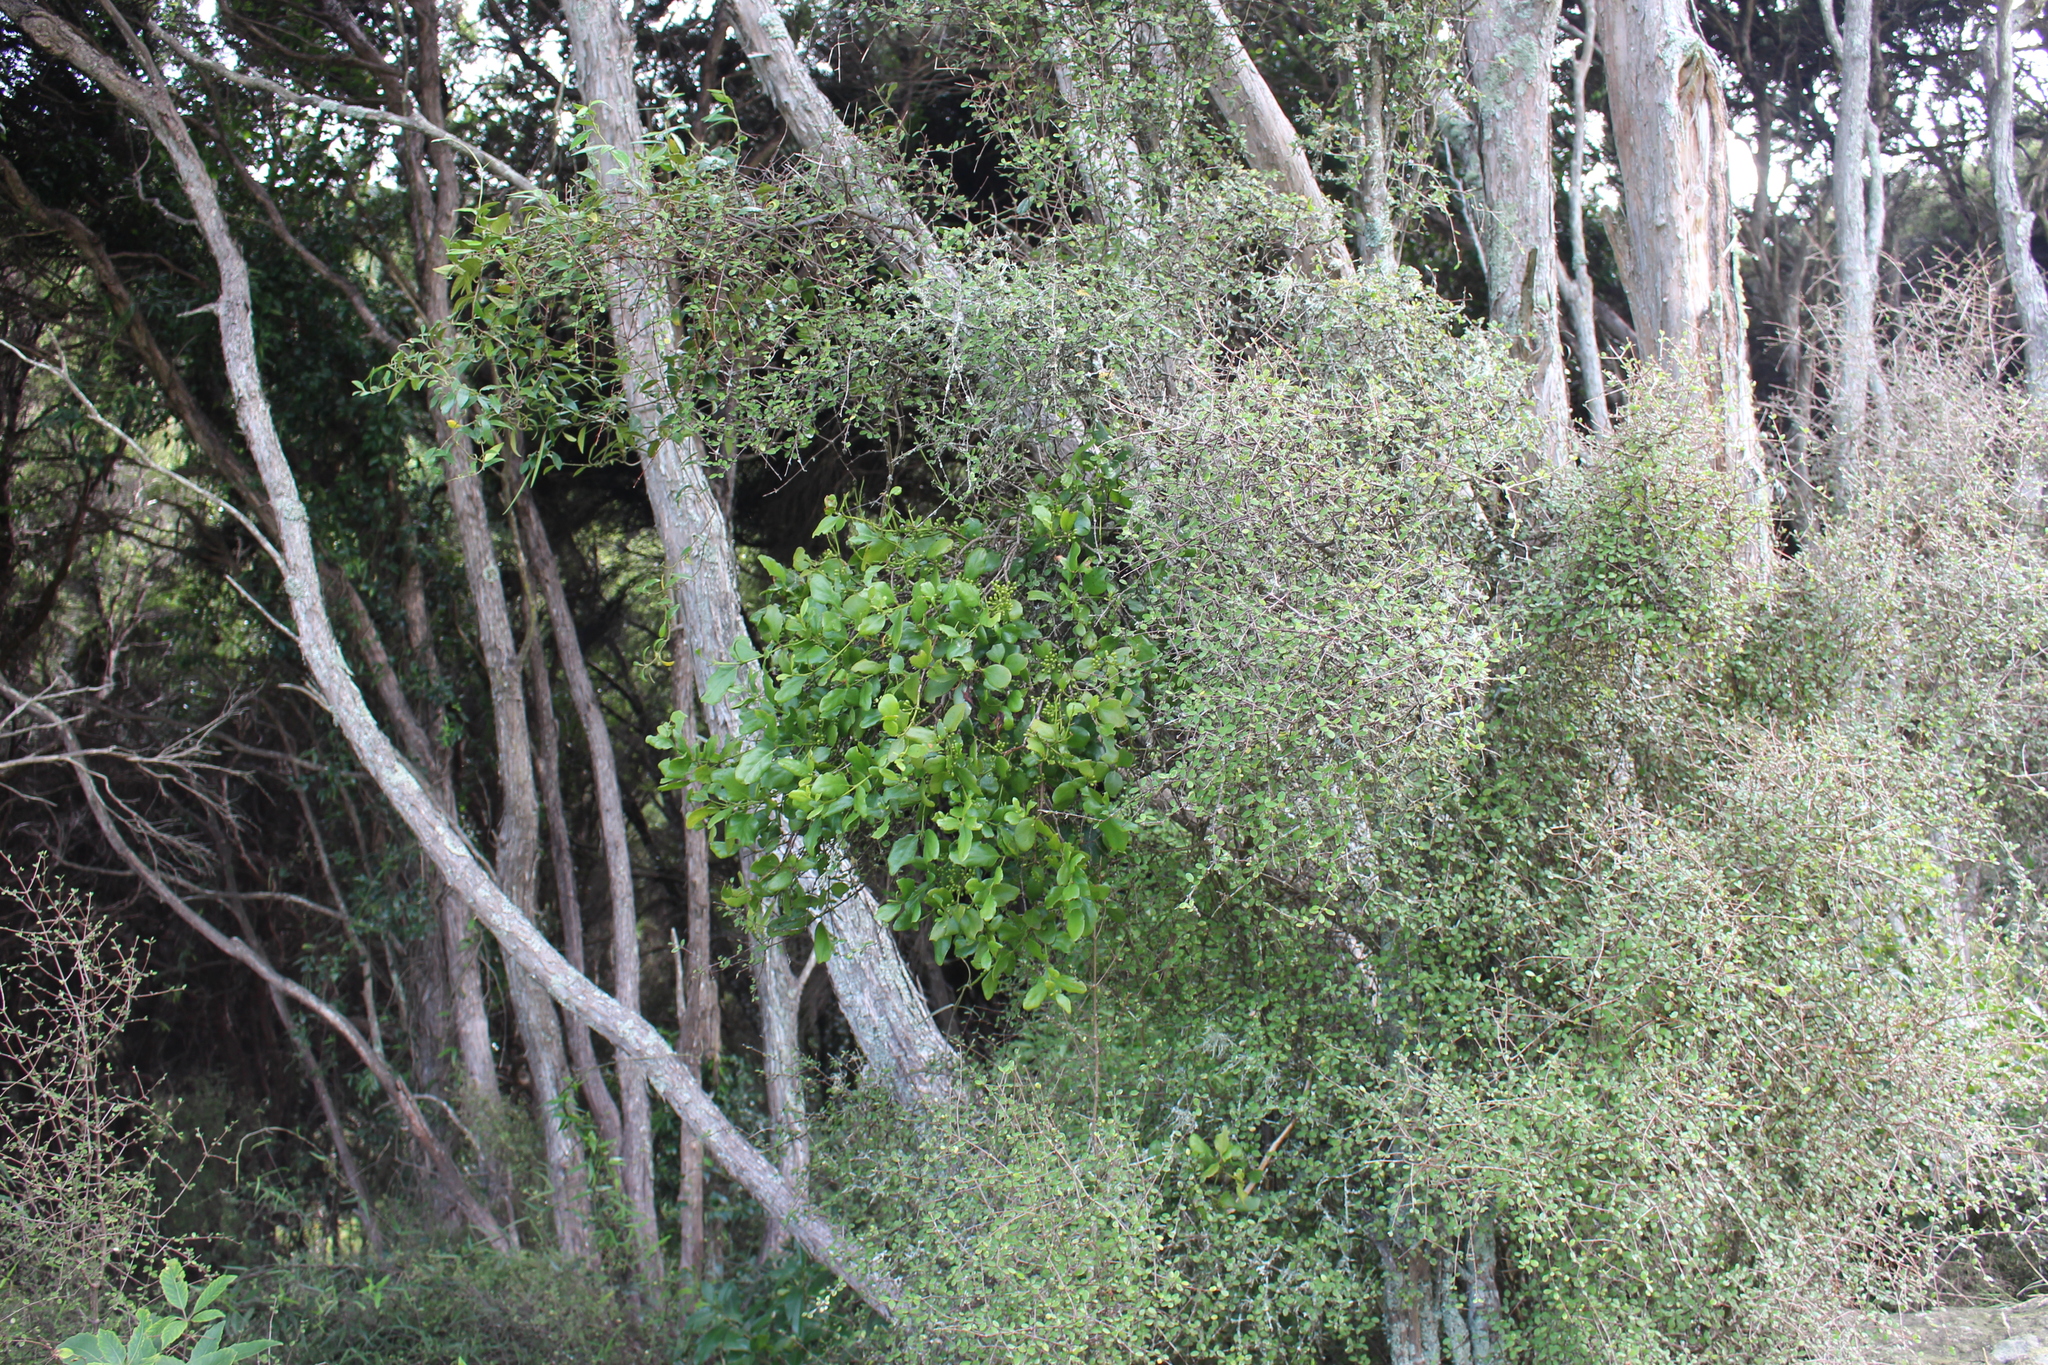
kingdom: Plantae
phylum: Tracheophyta
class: Magnoliopsida
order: Santalales
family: Loranthaceae
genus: Ileostylus
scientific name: Ileostylus micranthus
